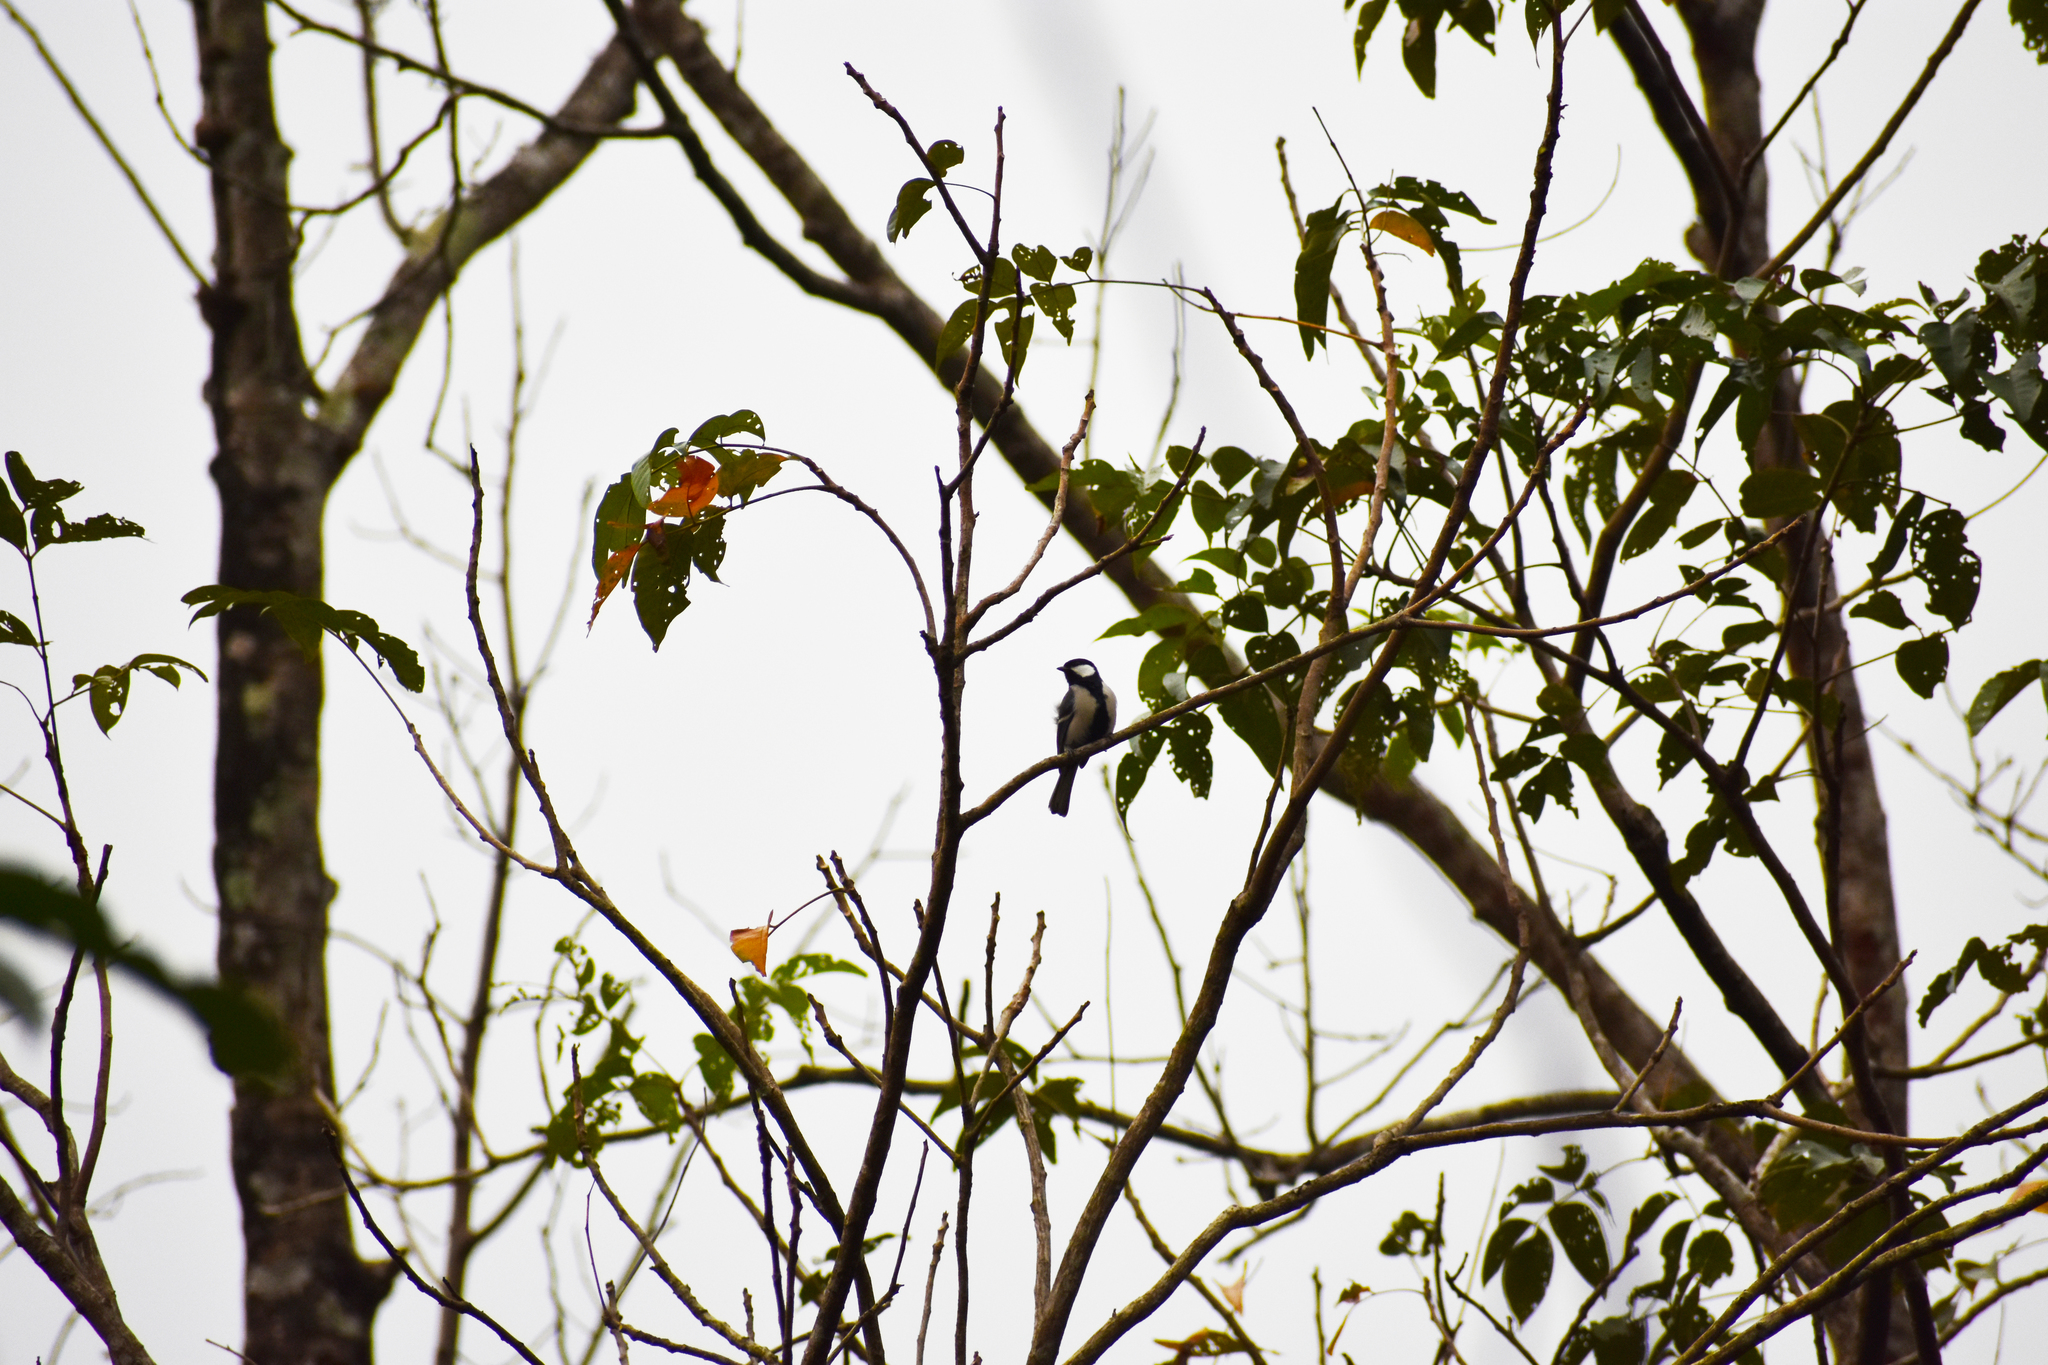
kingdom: Animalia
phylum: Chordata
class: Aves
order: Passeriformes
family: Paridae
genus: Parus
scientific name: Parus cinereus
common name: Cinereous tit
